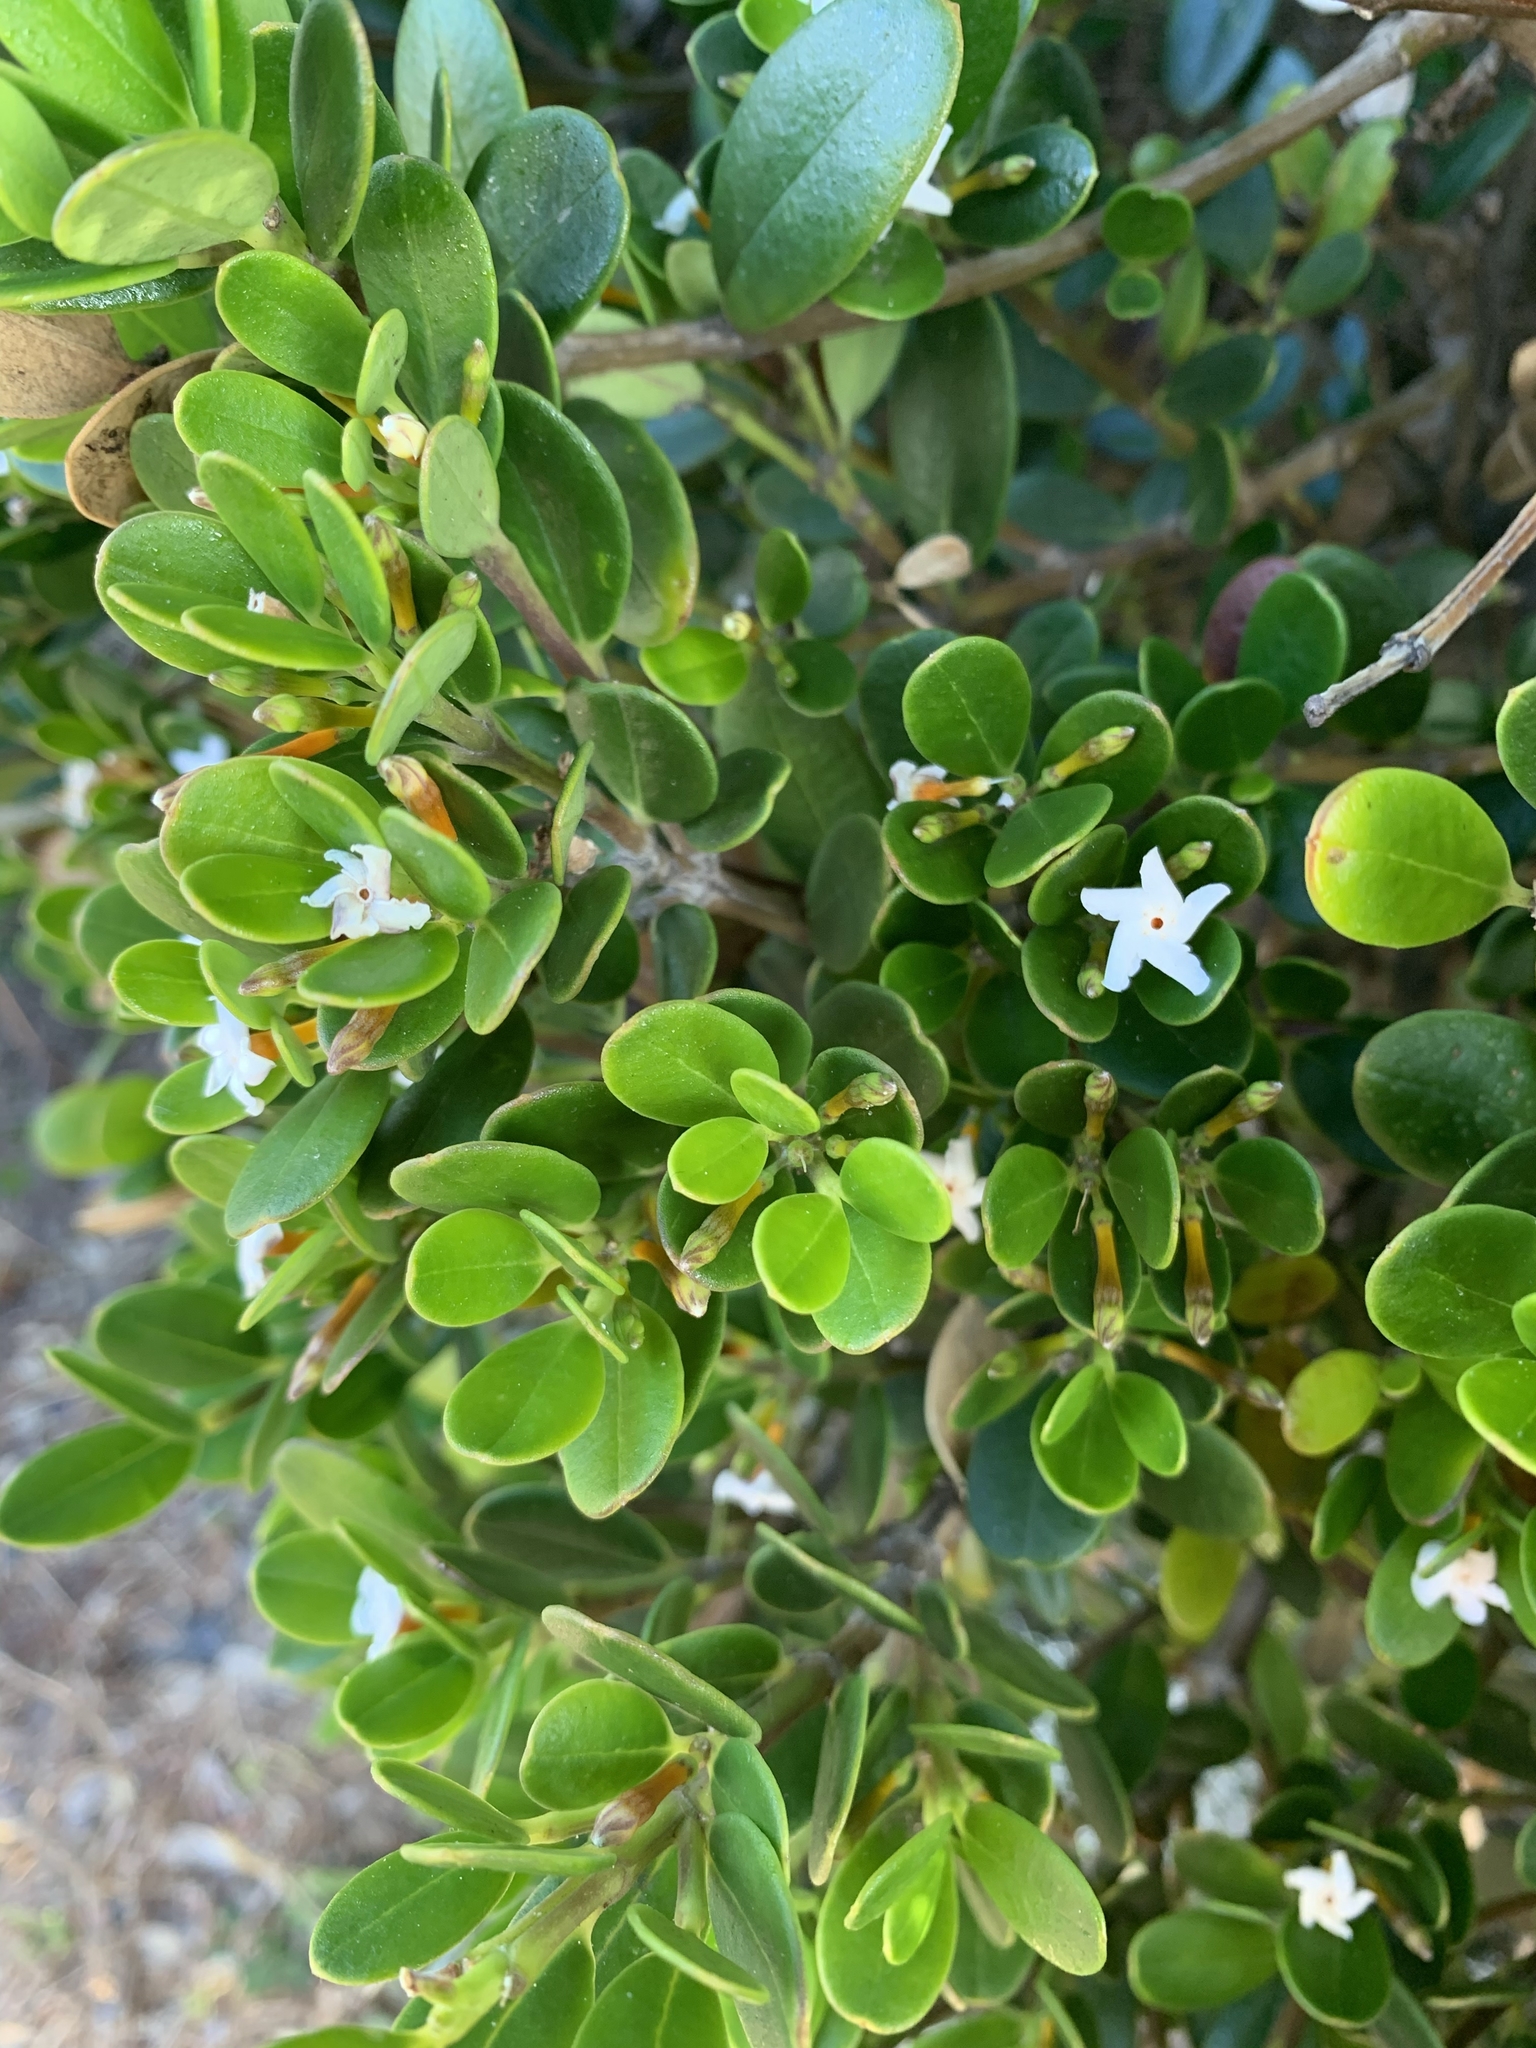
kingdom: Plantae
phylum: Tracheophyta
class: Magnoliopsida
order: Gentianales
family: Apocynaceae
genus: Alyxia
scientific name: Alyxia buxifolia
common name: Dysentery-bush
